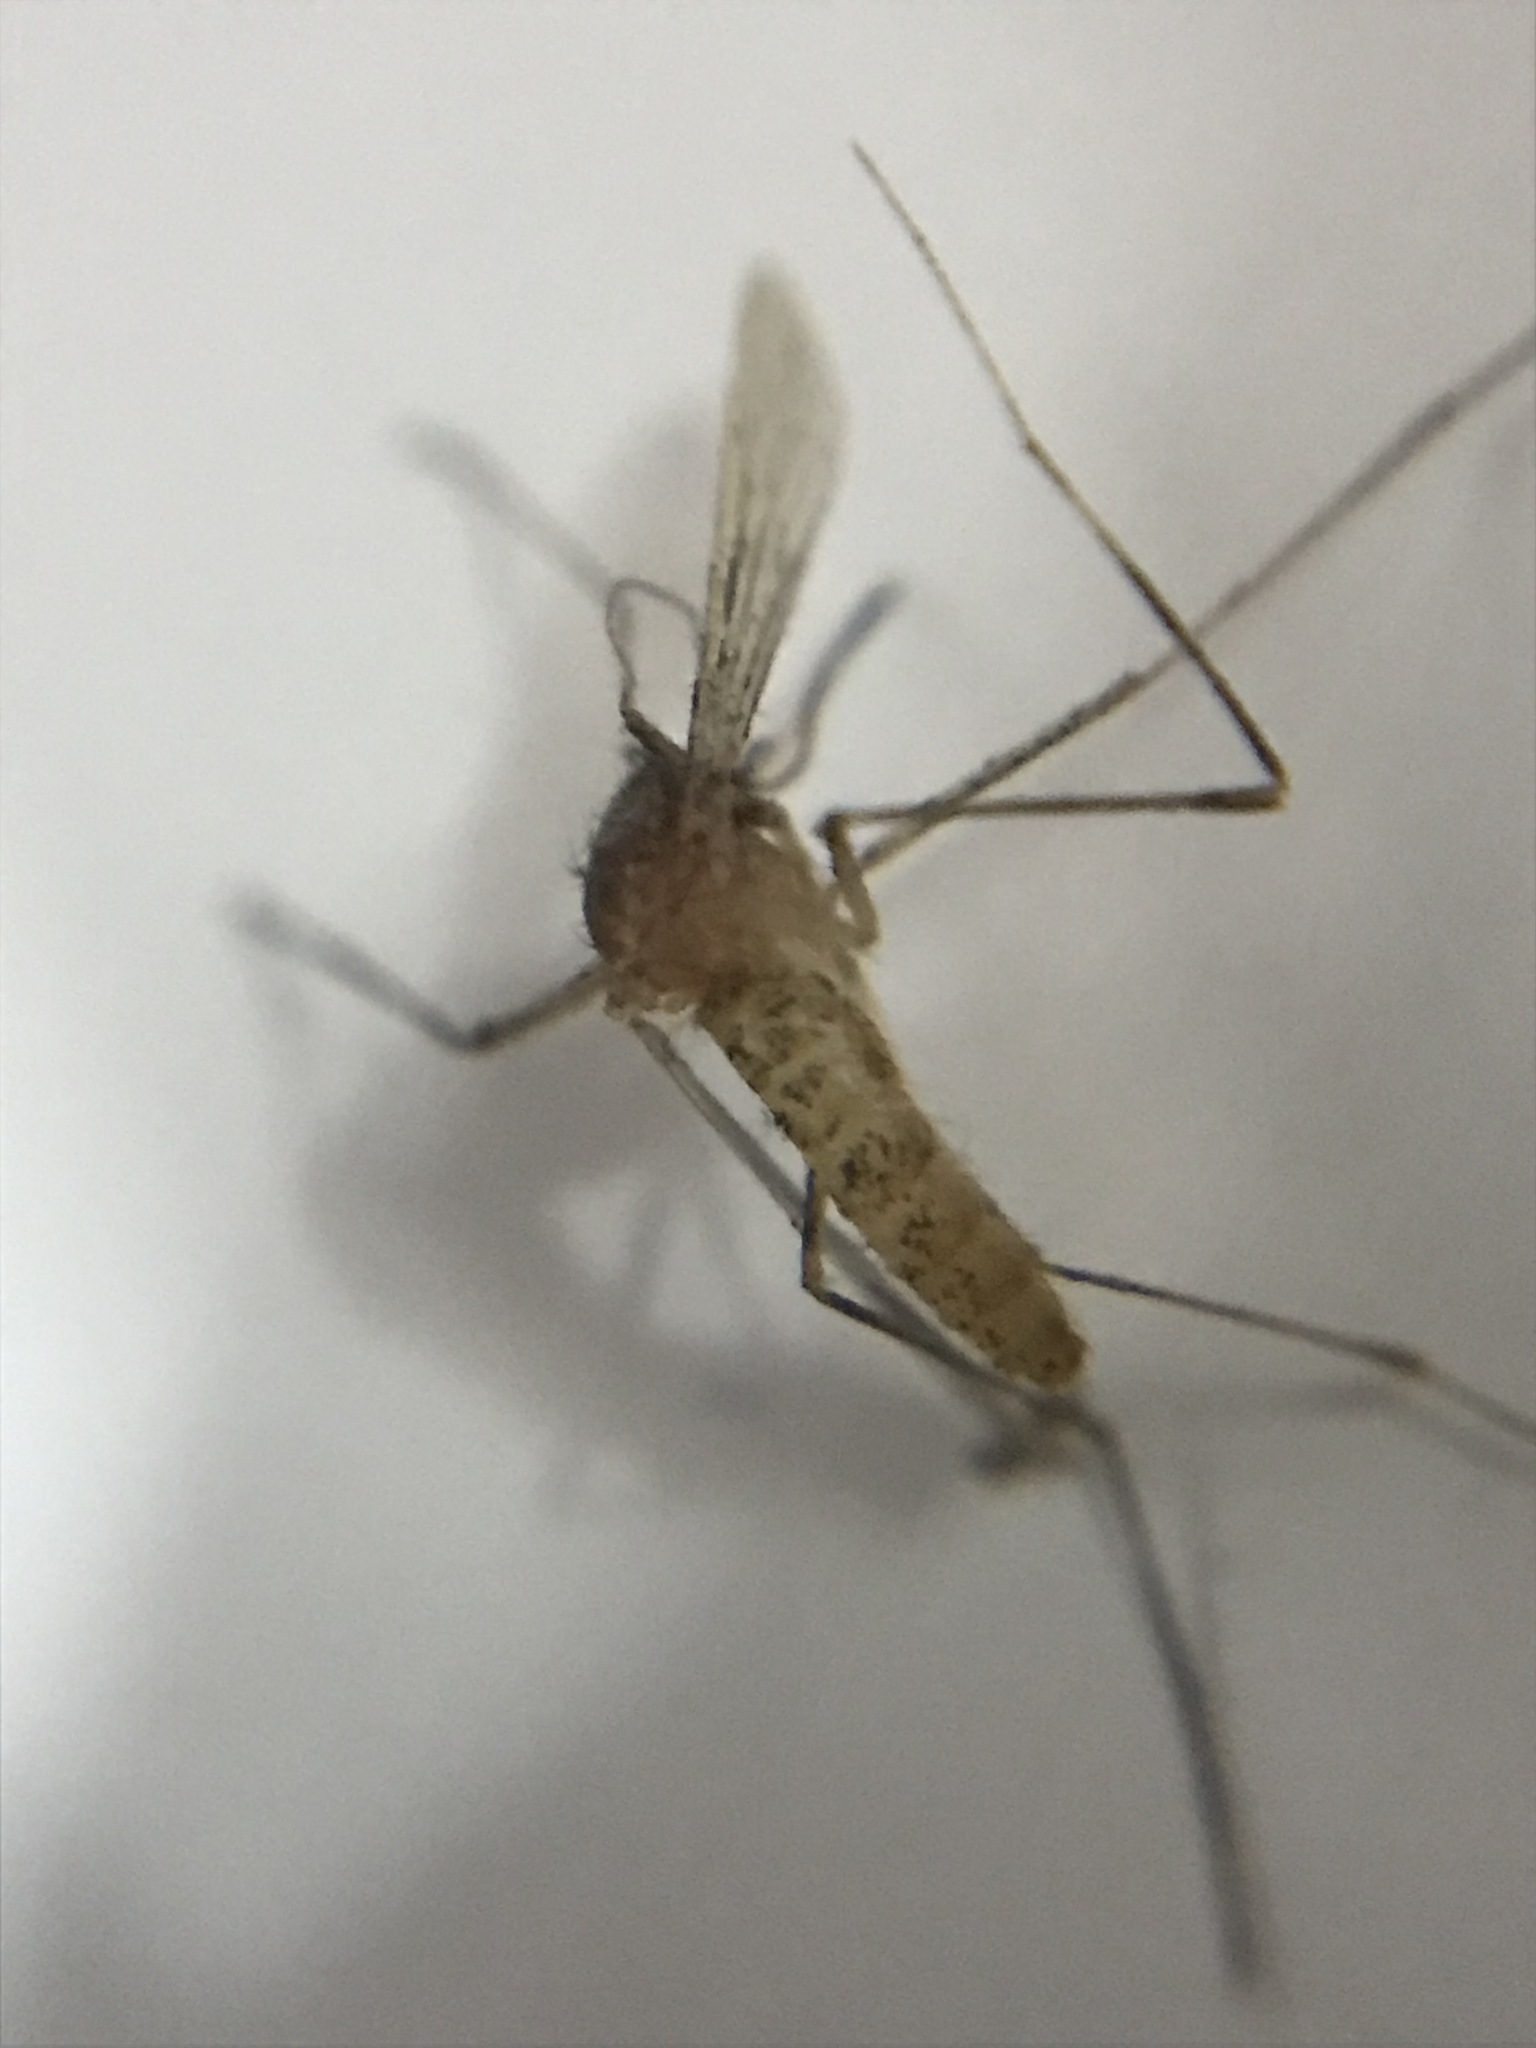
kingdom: Animalia
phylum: Arthropoda
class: Insecta
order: Diptera
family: Culicidae
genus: Culex
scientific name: Culex
